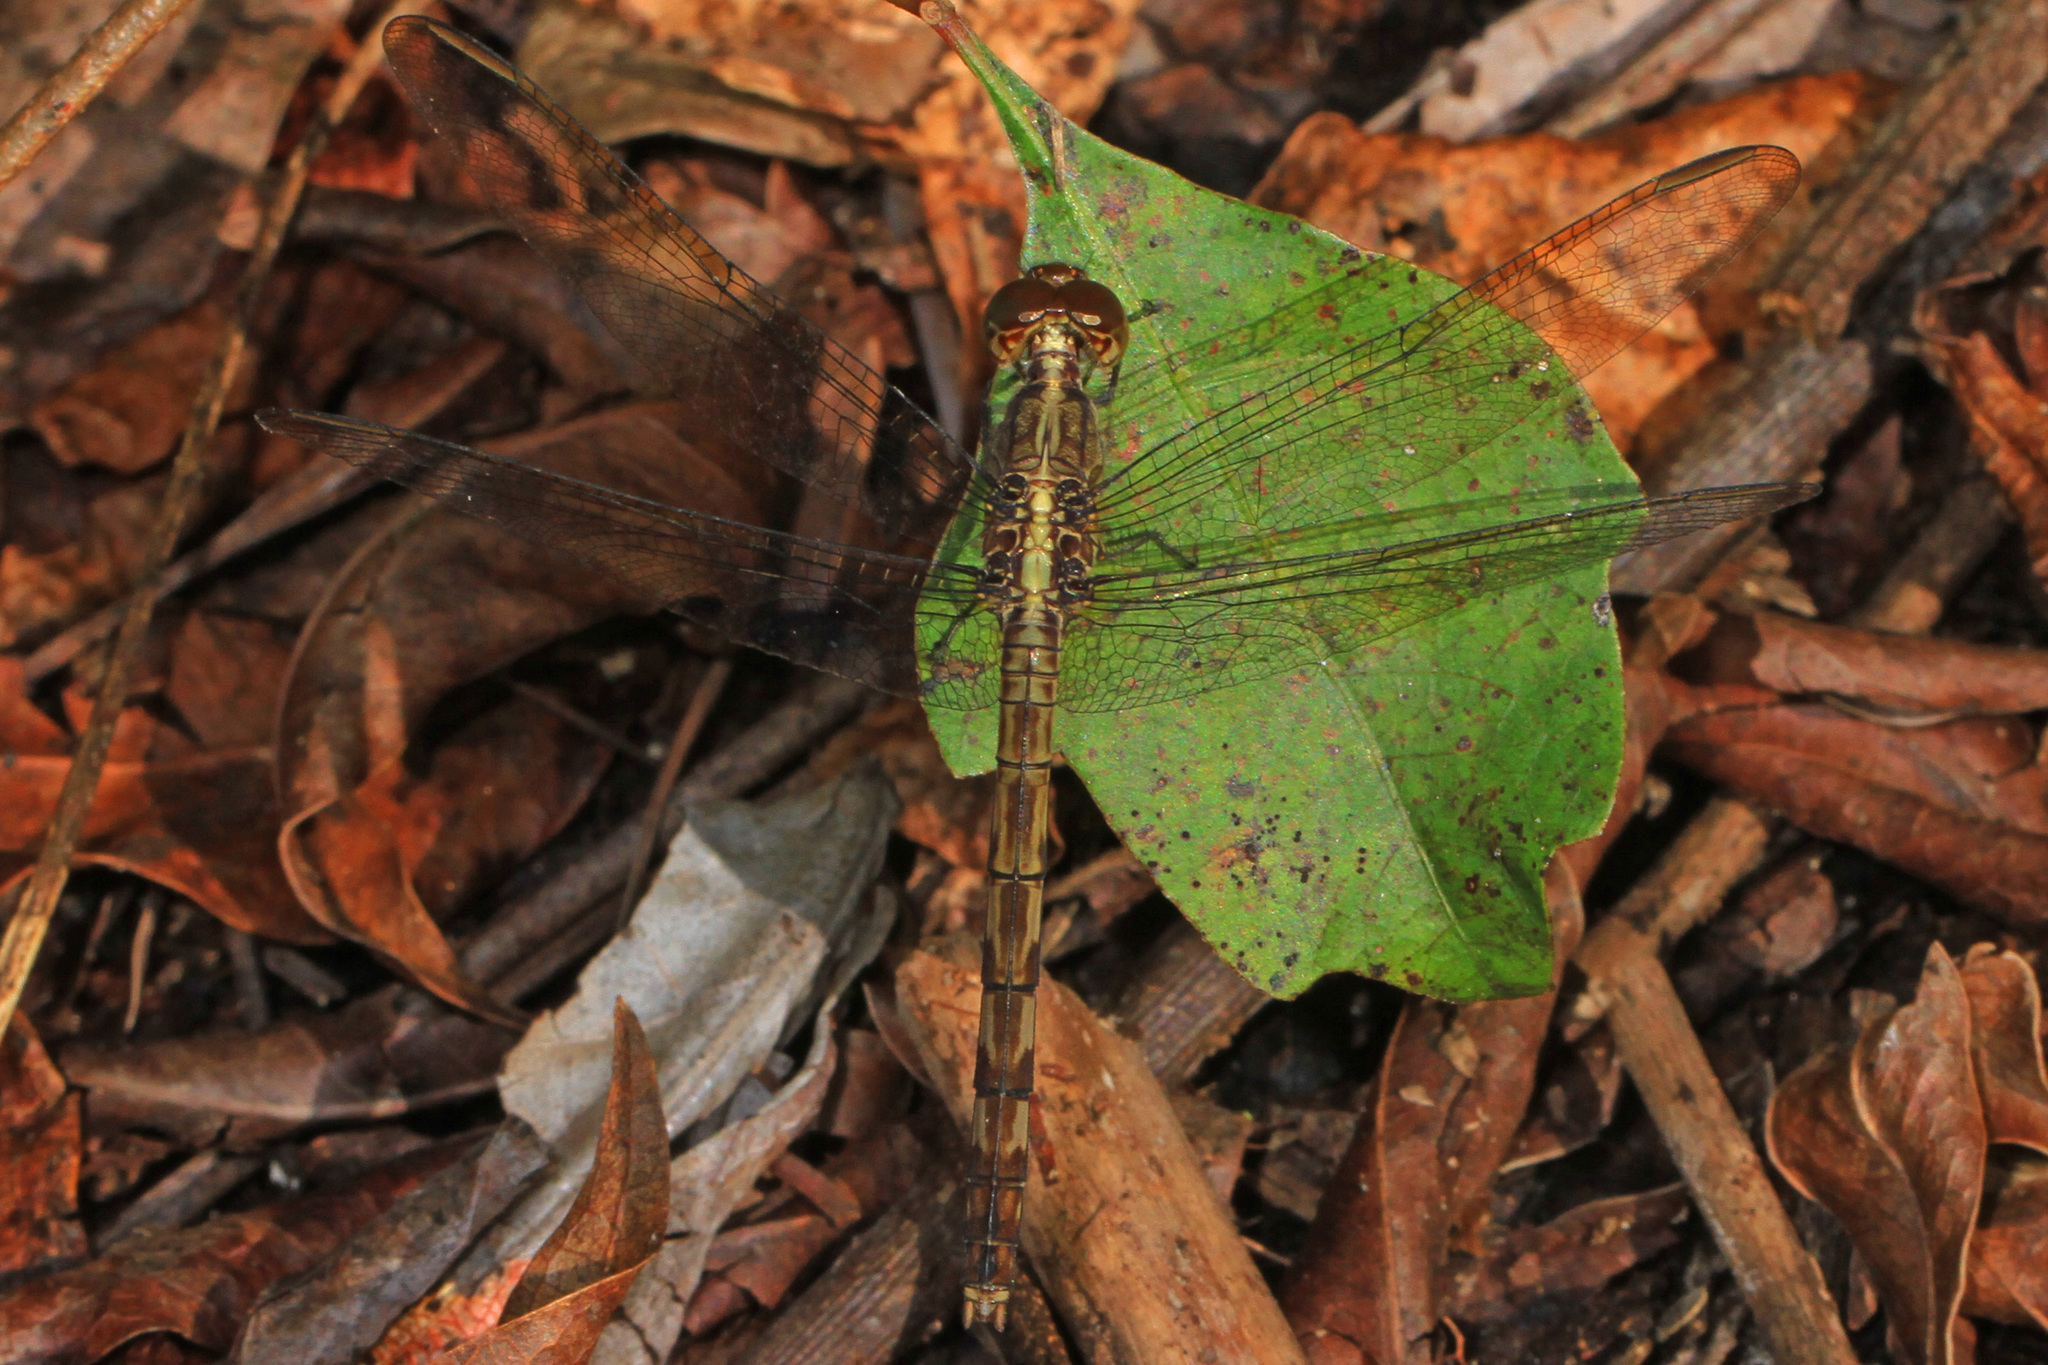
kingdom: Animalia
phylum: Arthropoda
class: Insecta
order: Odonata
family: Libellulidae
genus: Erythrodiplax
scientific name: Erythrodiplax umbrata
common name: Band-winged dragonlet
